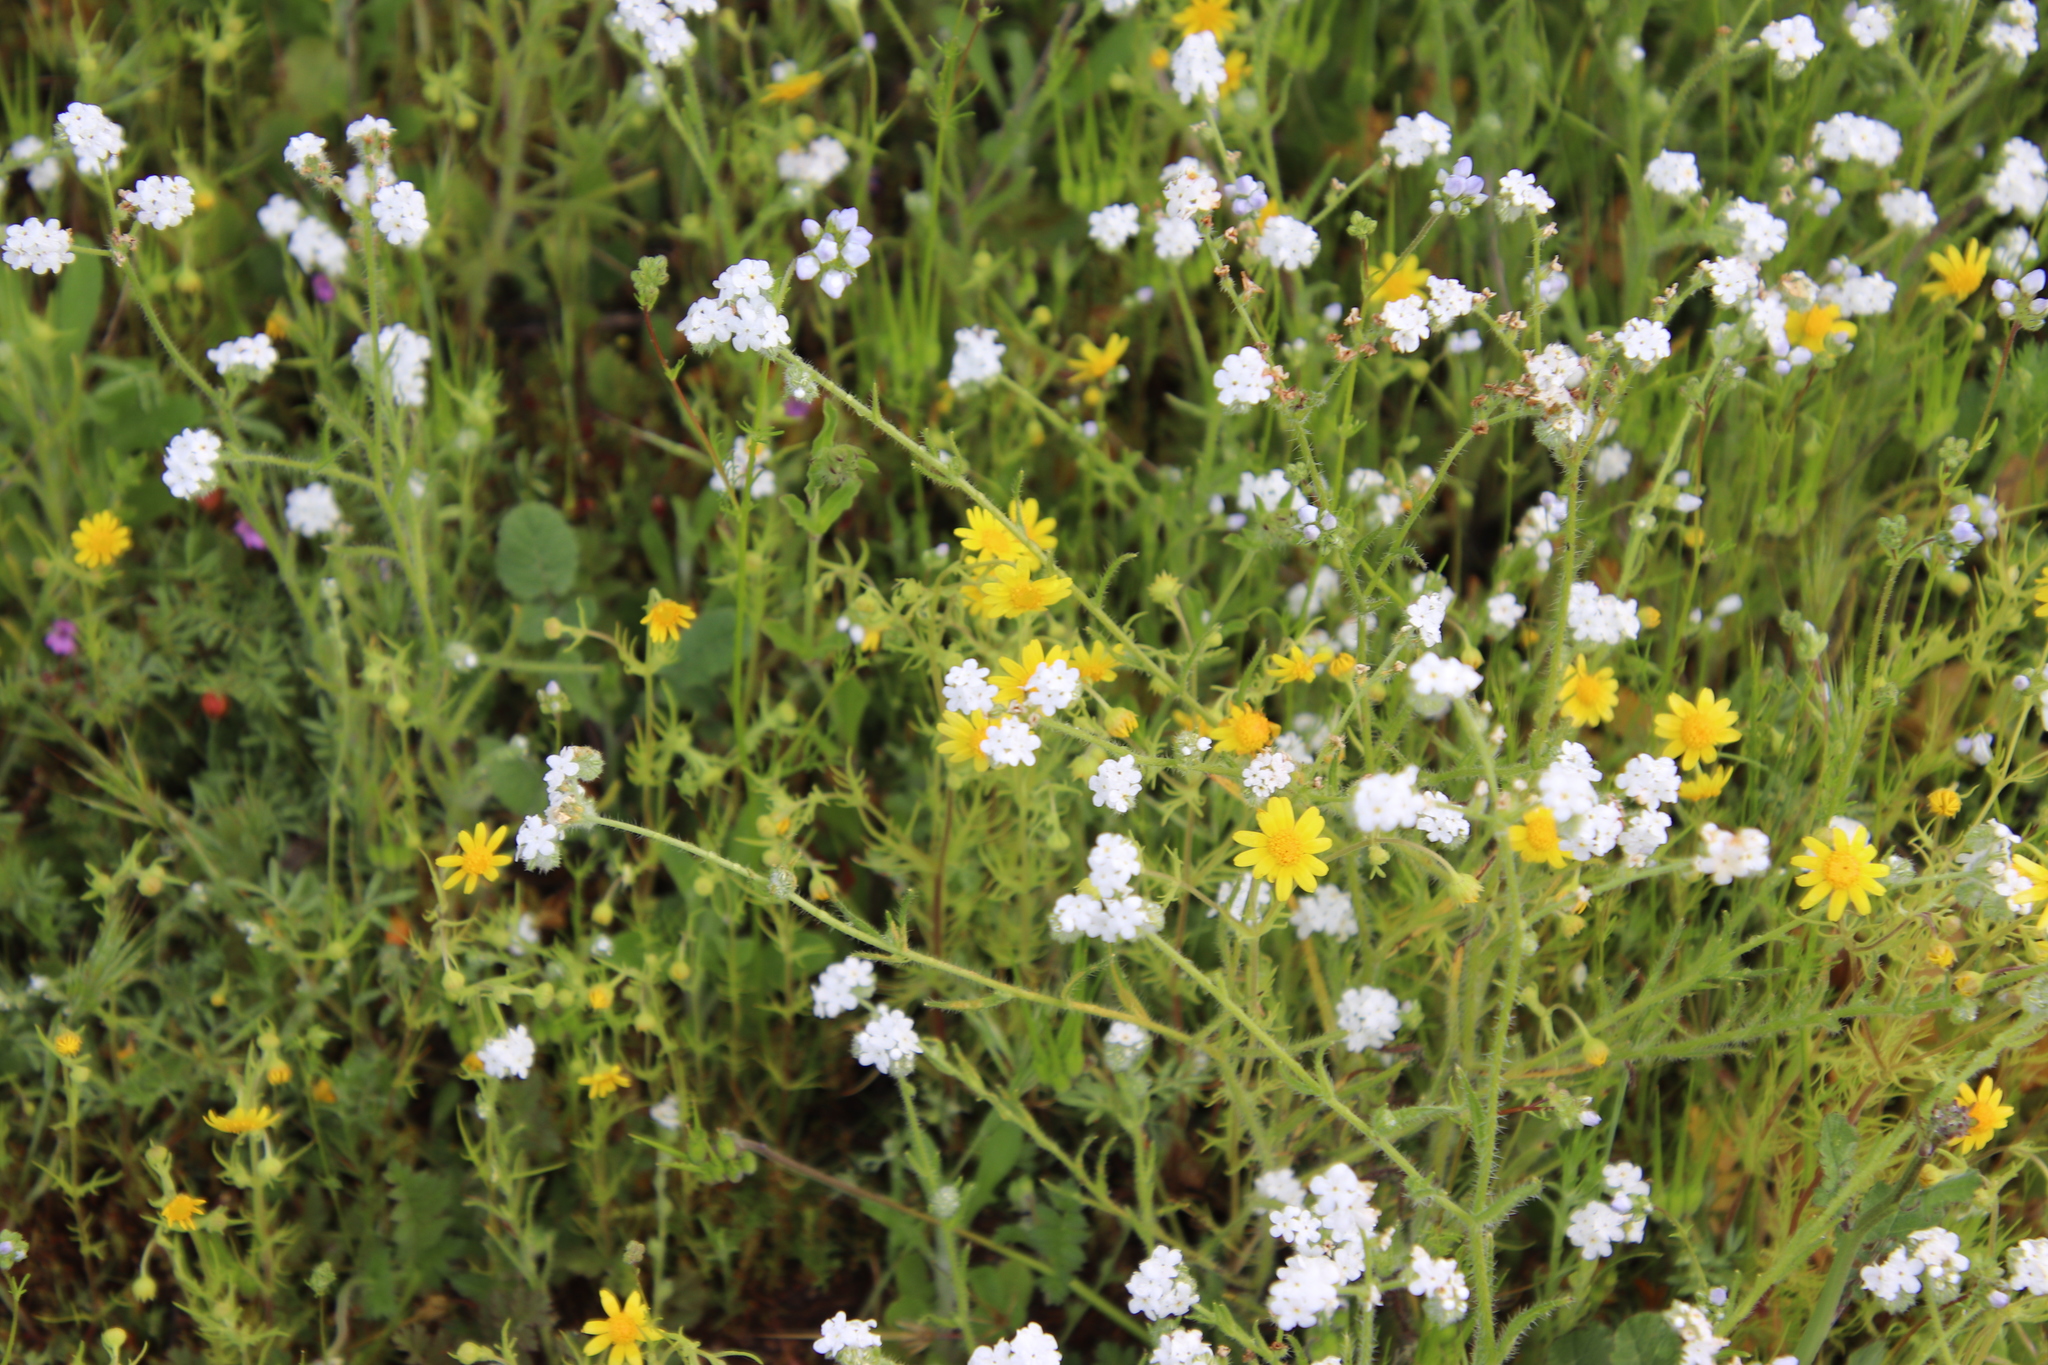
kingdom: Plantae
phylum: Tracheophyta
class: Magnoliopsida
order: Asterales
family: Asteraceae
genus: Lasthenia
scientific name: Lasthenia coronaria
